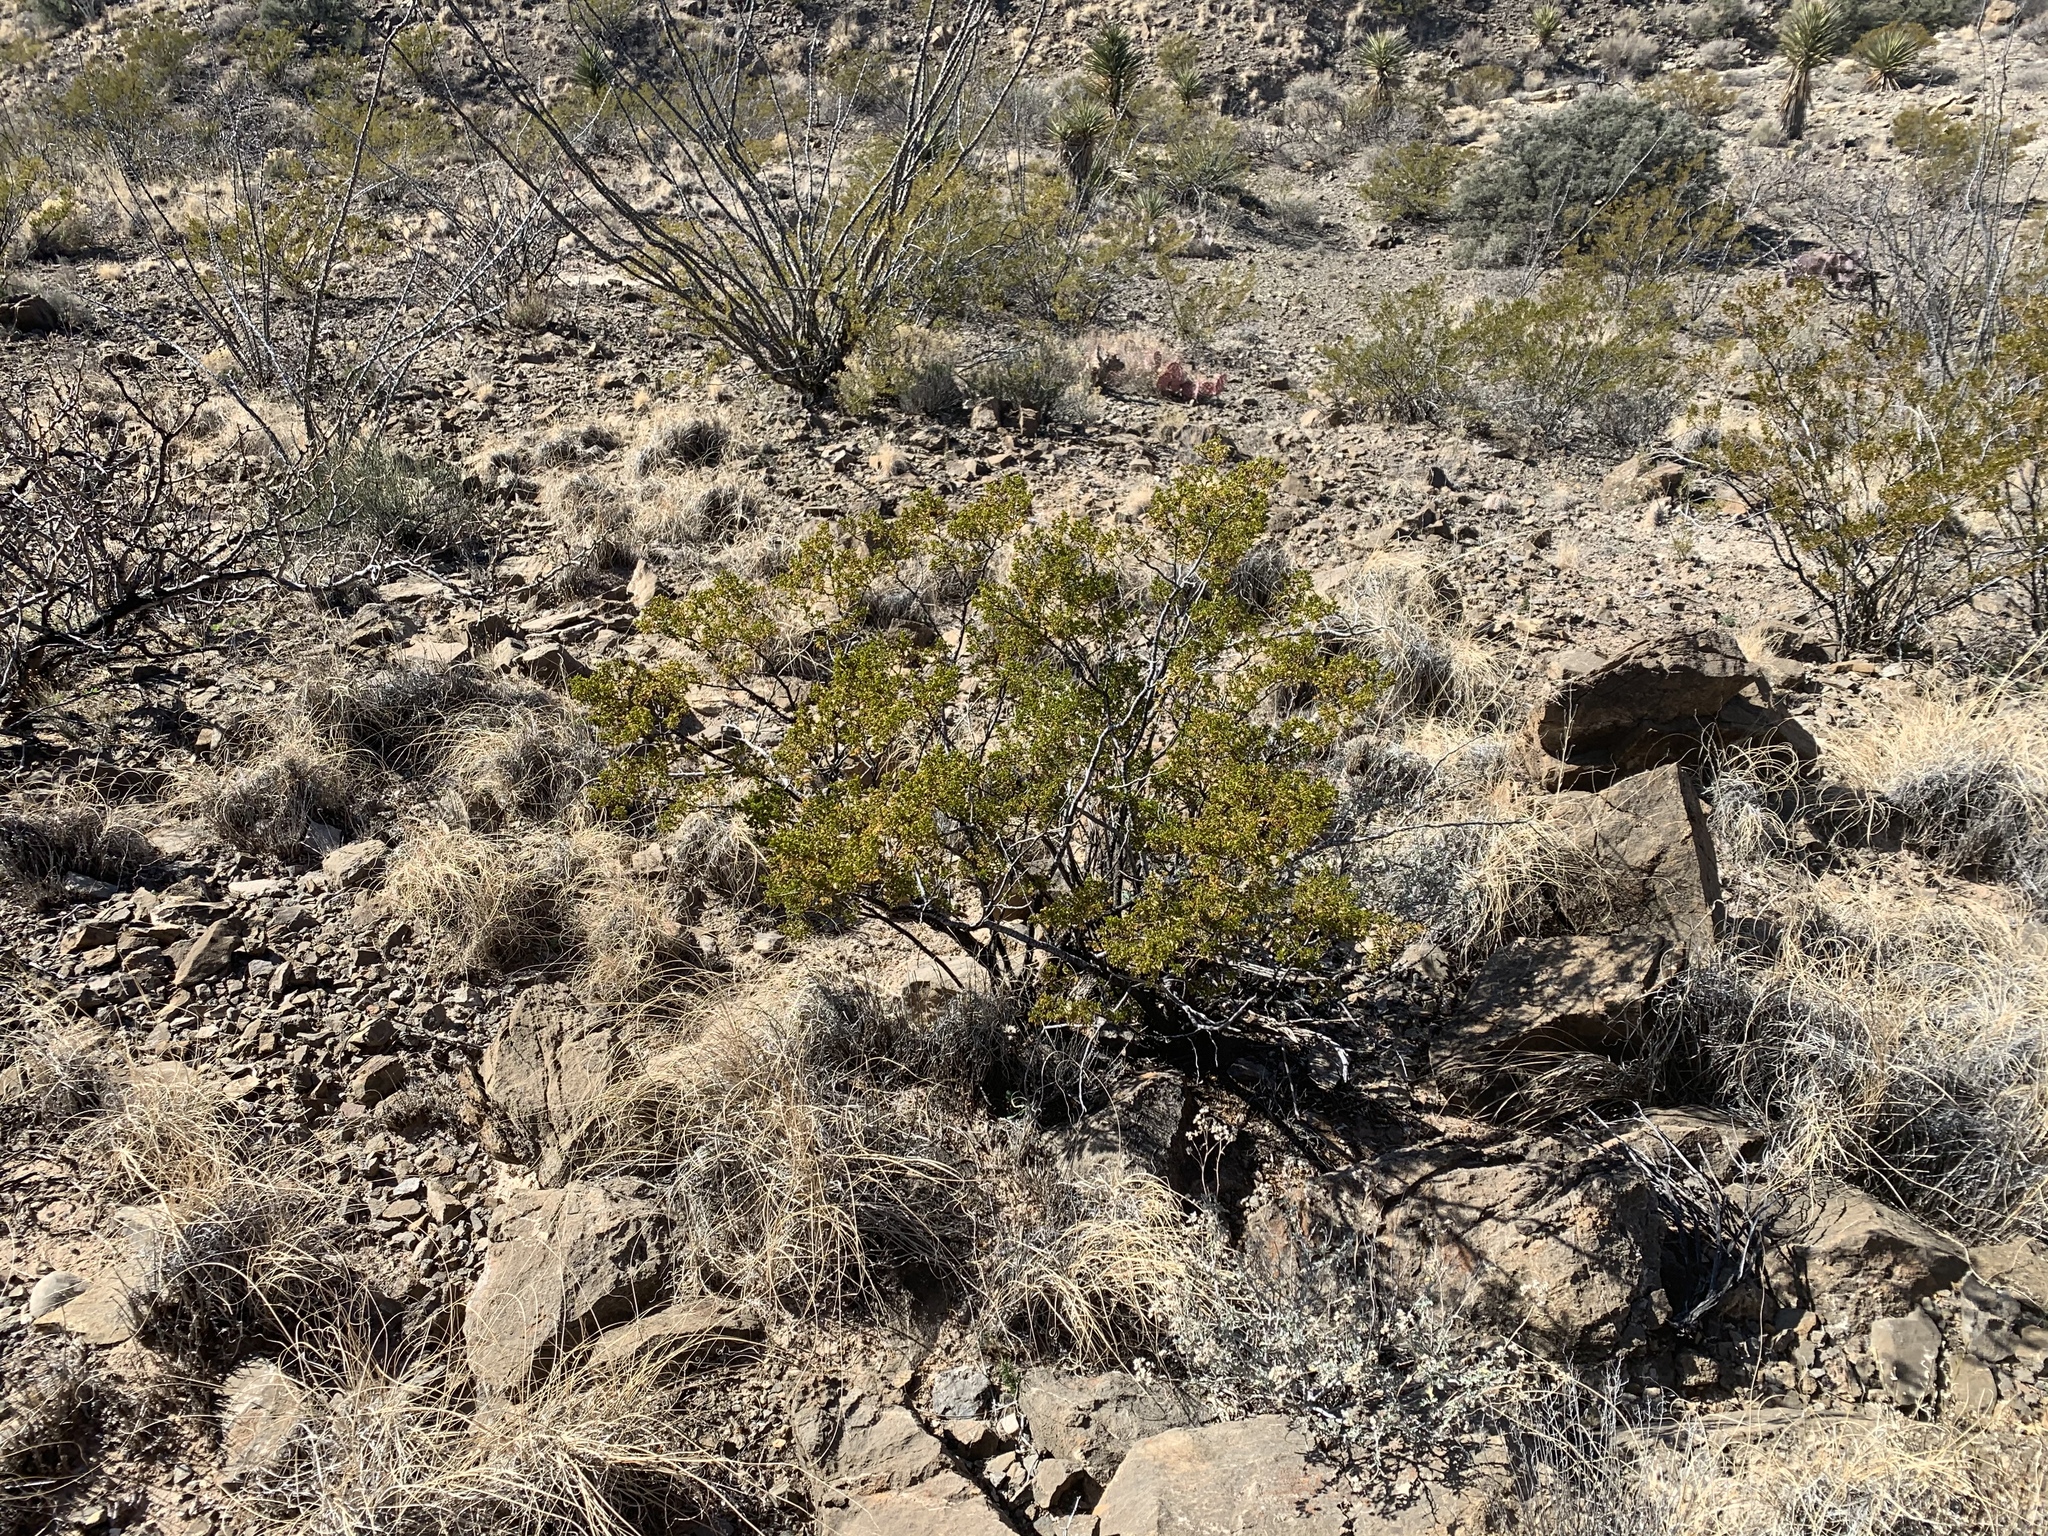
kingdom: Plantae
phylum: Tracheophyta
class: Magnoliopsida
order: Zygophyllales
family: Zygophyllaceae
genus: Larrea
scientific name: Larrea tridentata
